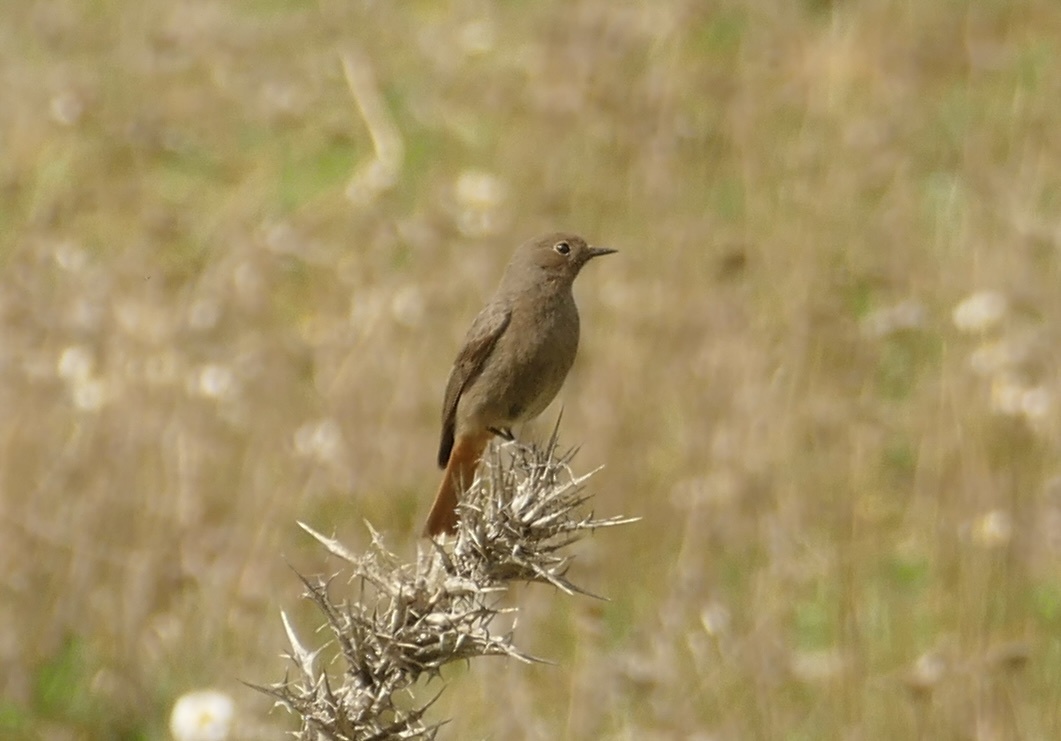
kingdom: Animalia
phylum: Chordata
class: Aves
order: Passeriformes
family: Muscicapidae
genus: Phoenicurus
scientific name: Phoenicurus ochruros
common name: Black redstart
